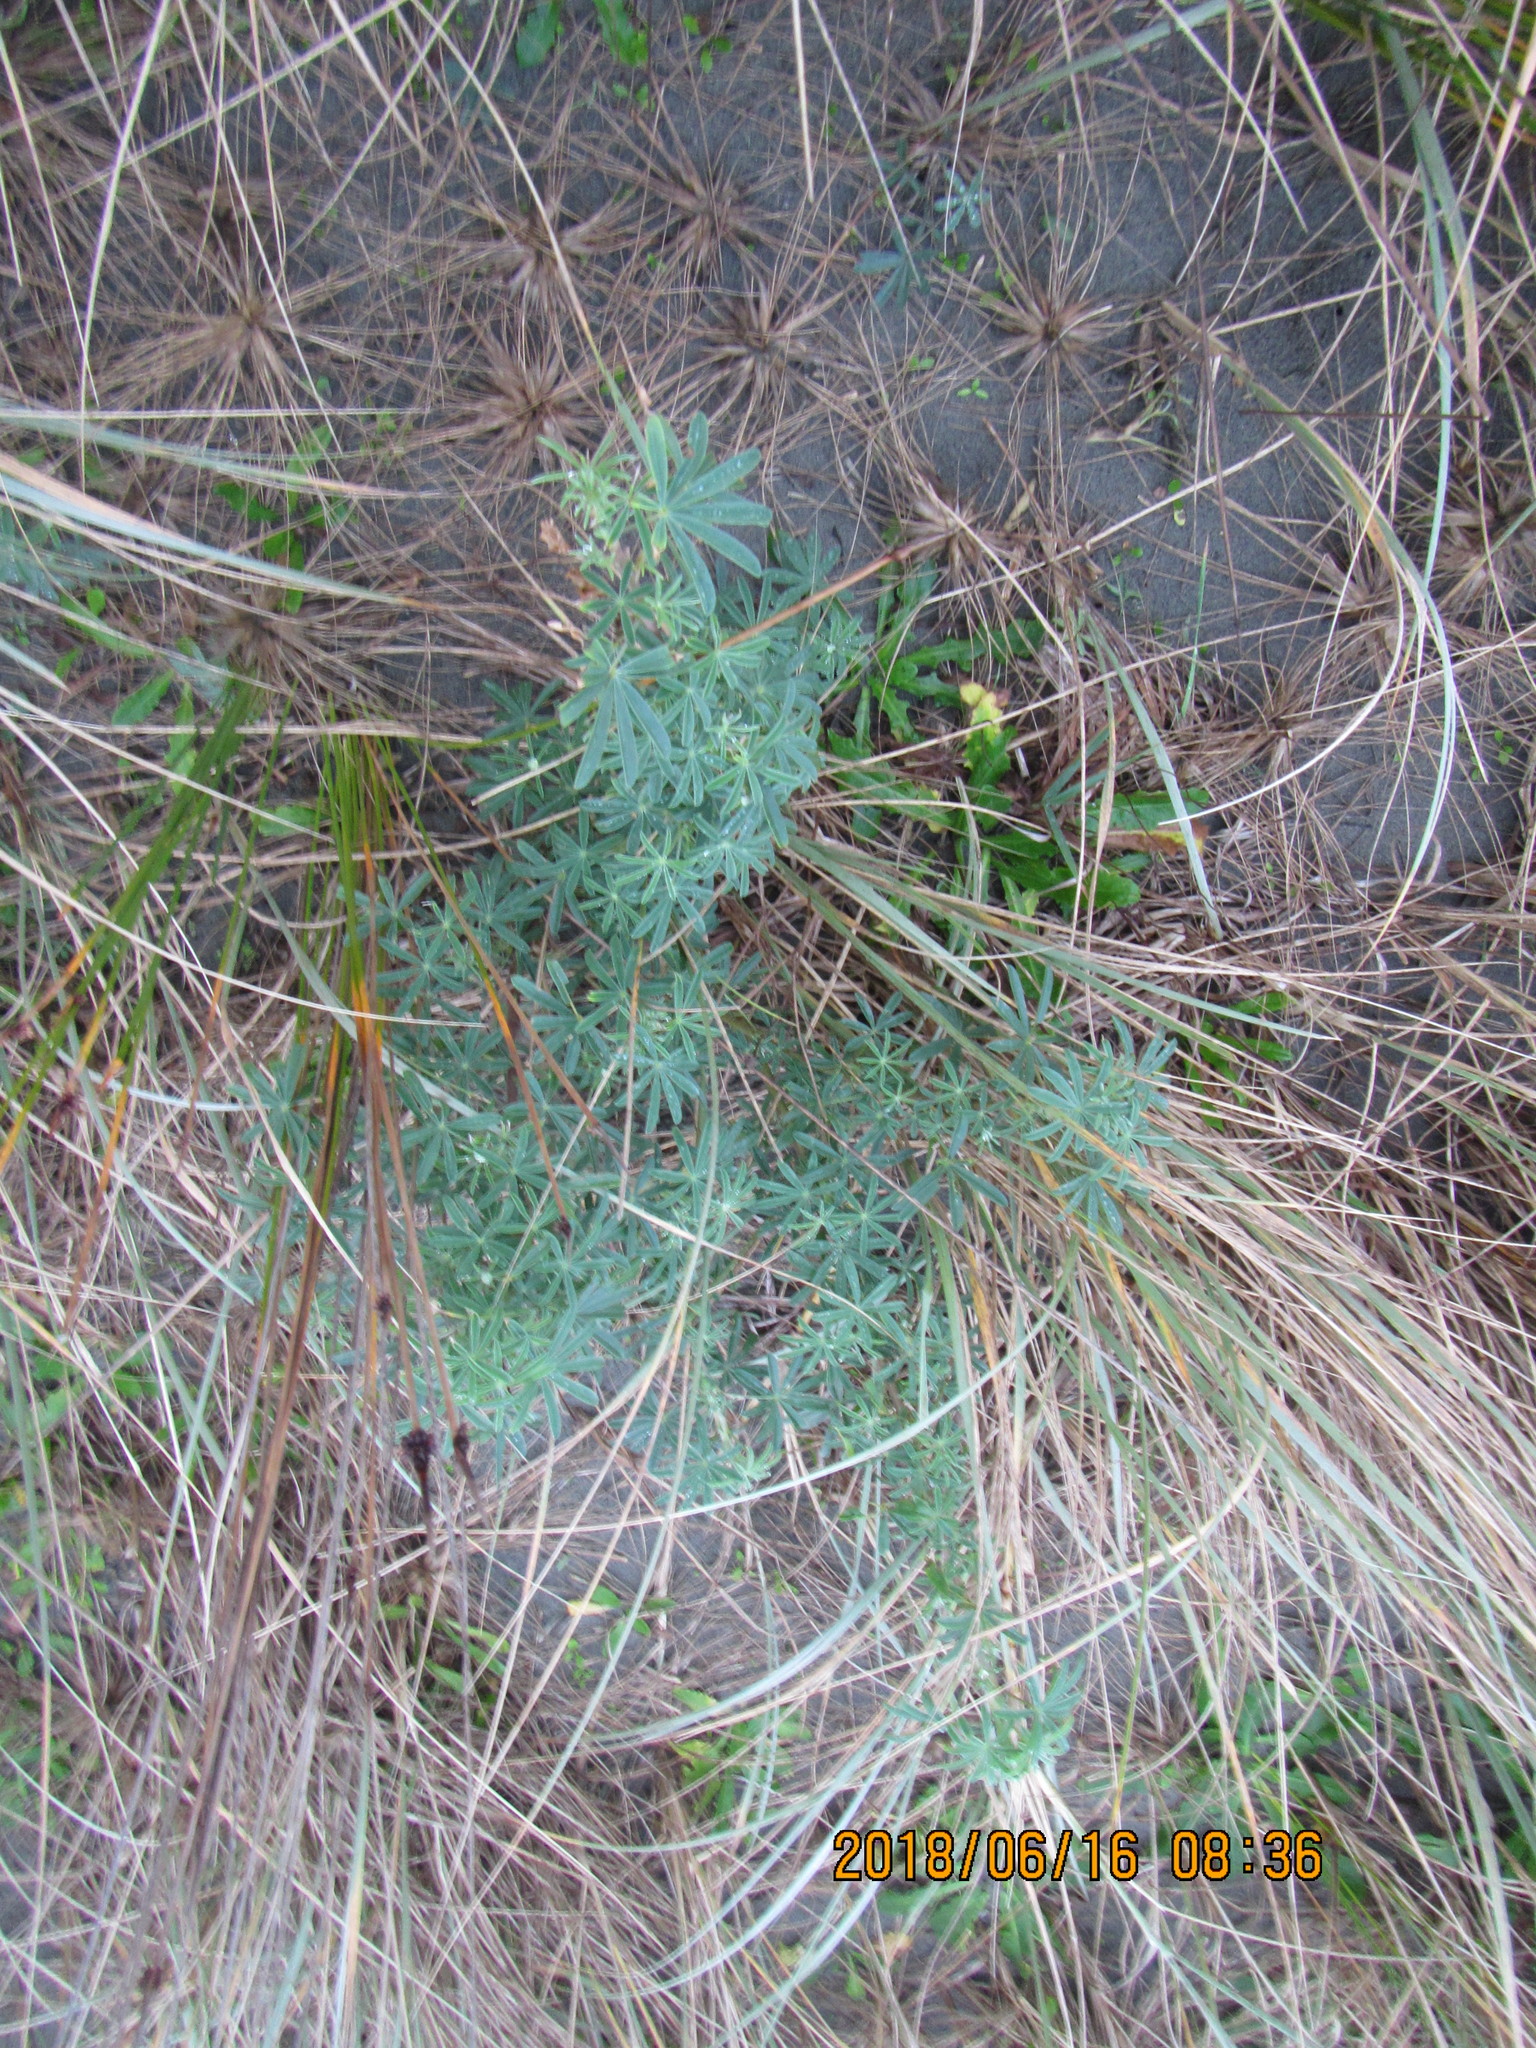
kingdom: Plantae
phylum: Tracheophyta
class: Magnoliopsida
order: Fabales
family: Fabaceae
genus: Lupinus
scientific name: Lupinus arboreus
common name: Yellow bush lupine
